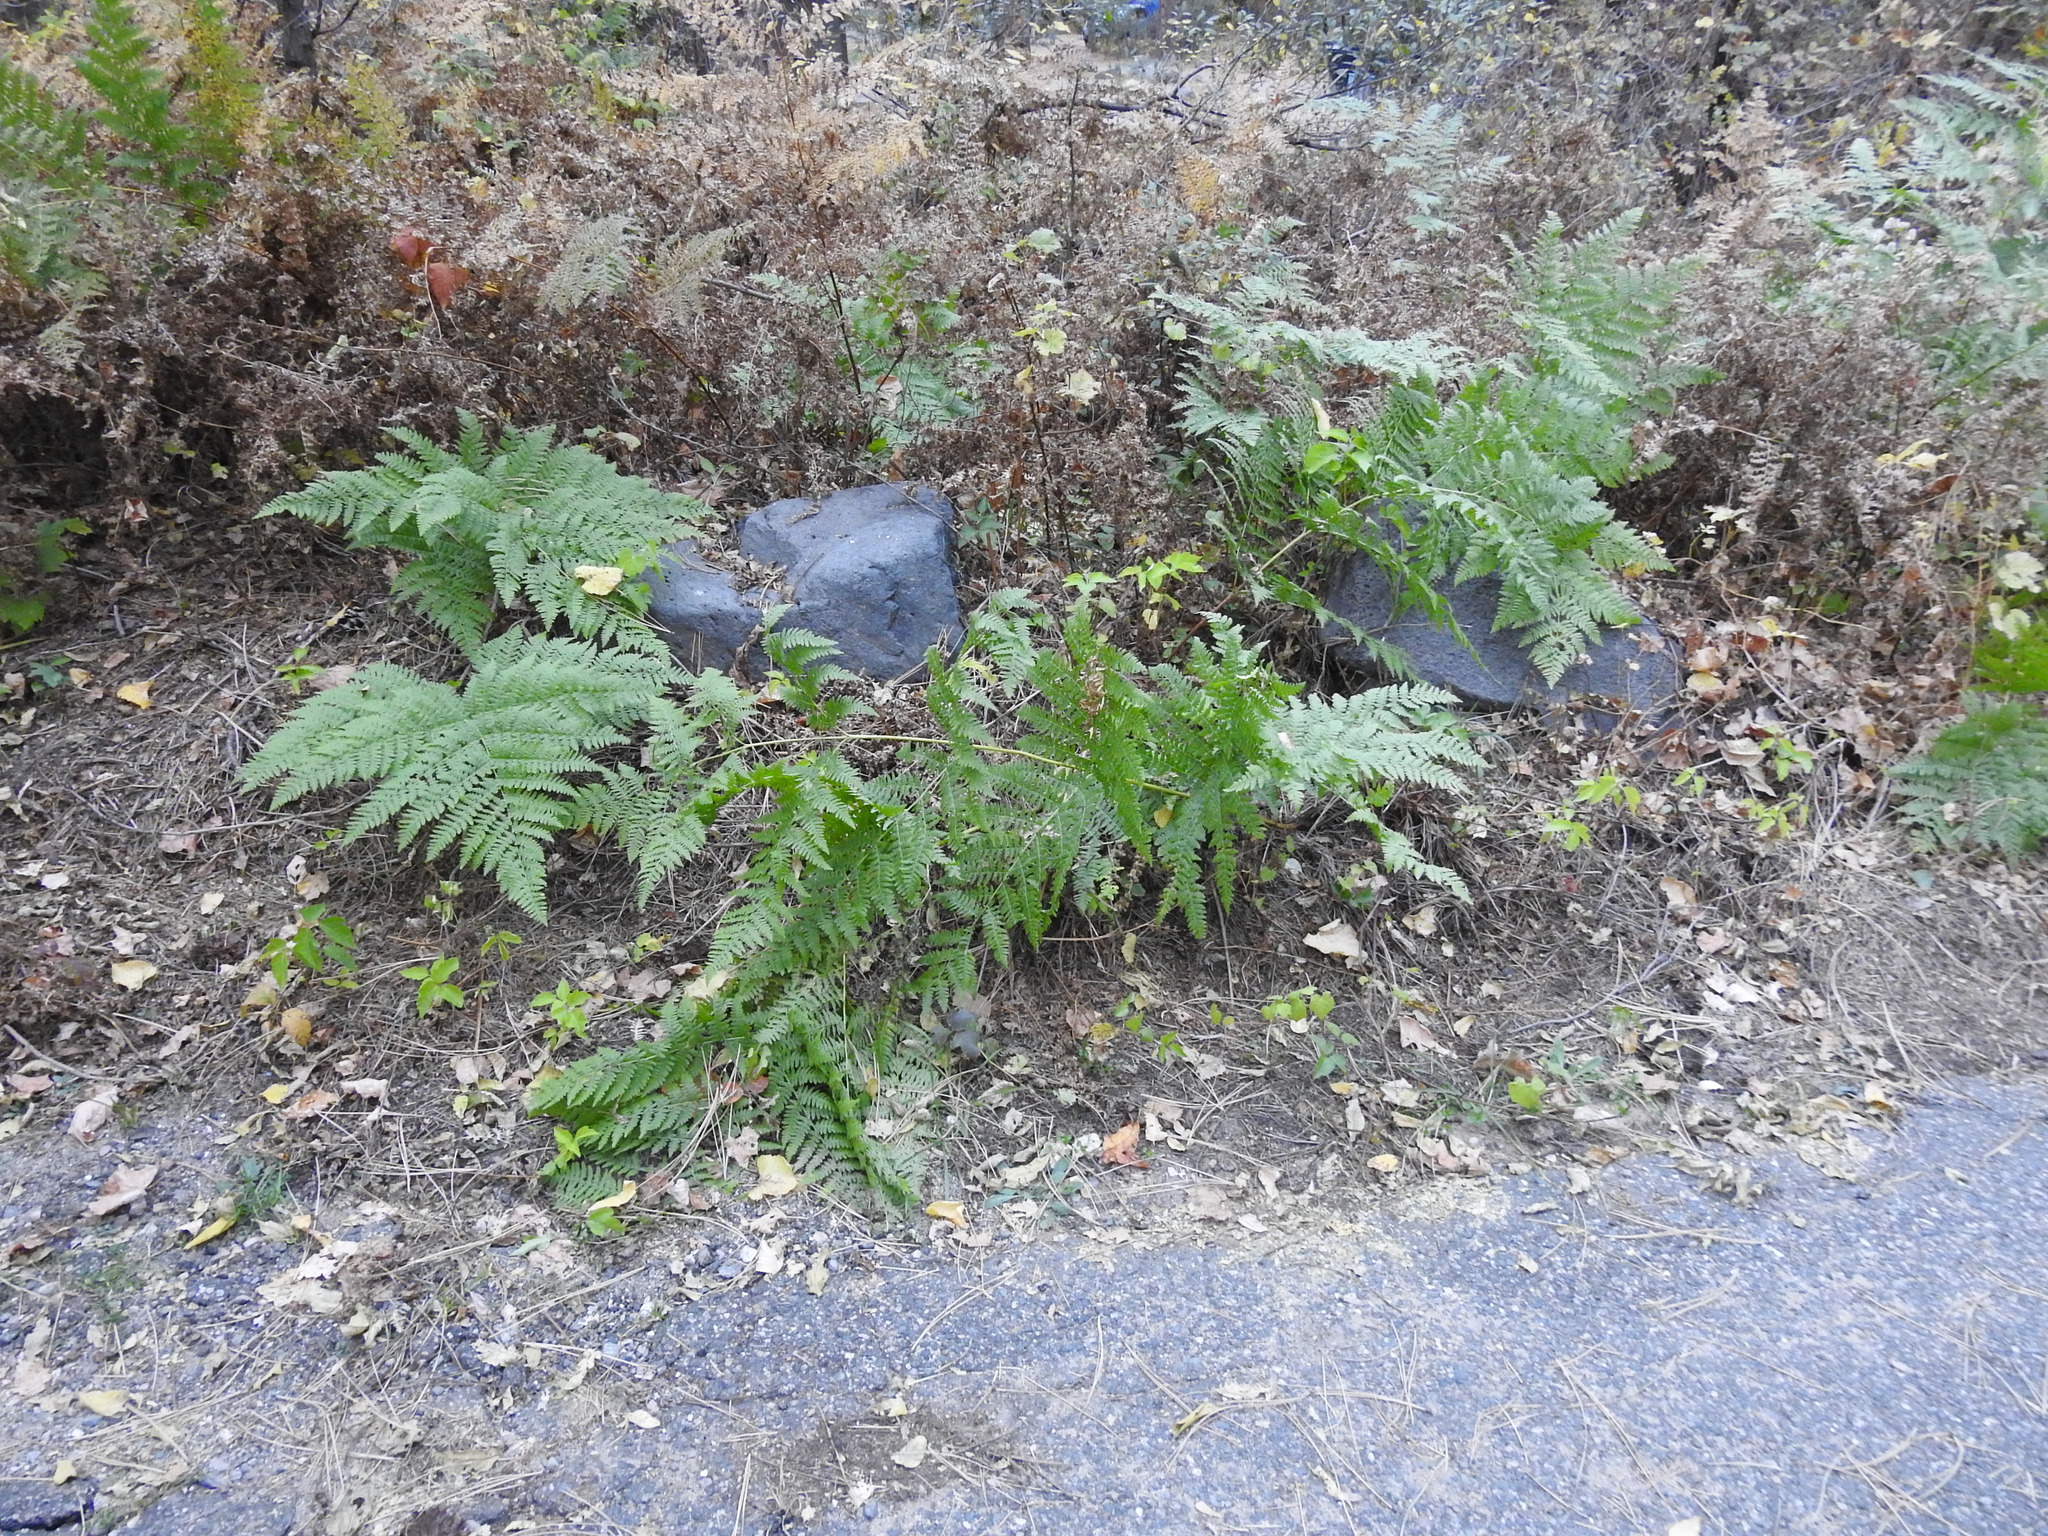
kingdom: Plantae
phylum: Tracheophyta
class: Polypodiopsida
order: Polypodiales
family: Dennstaedtiaceae
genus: Pteridium
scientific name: Pteridium aquilinum
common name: Bracken
